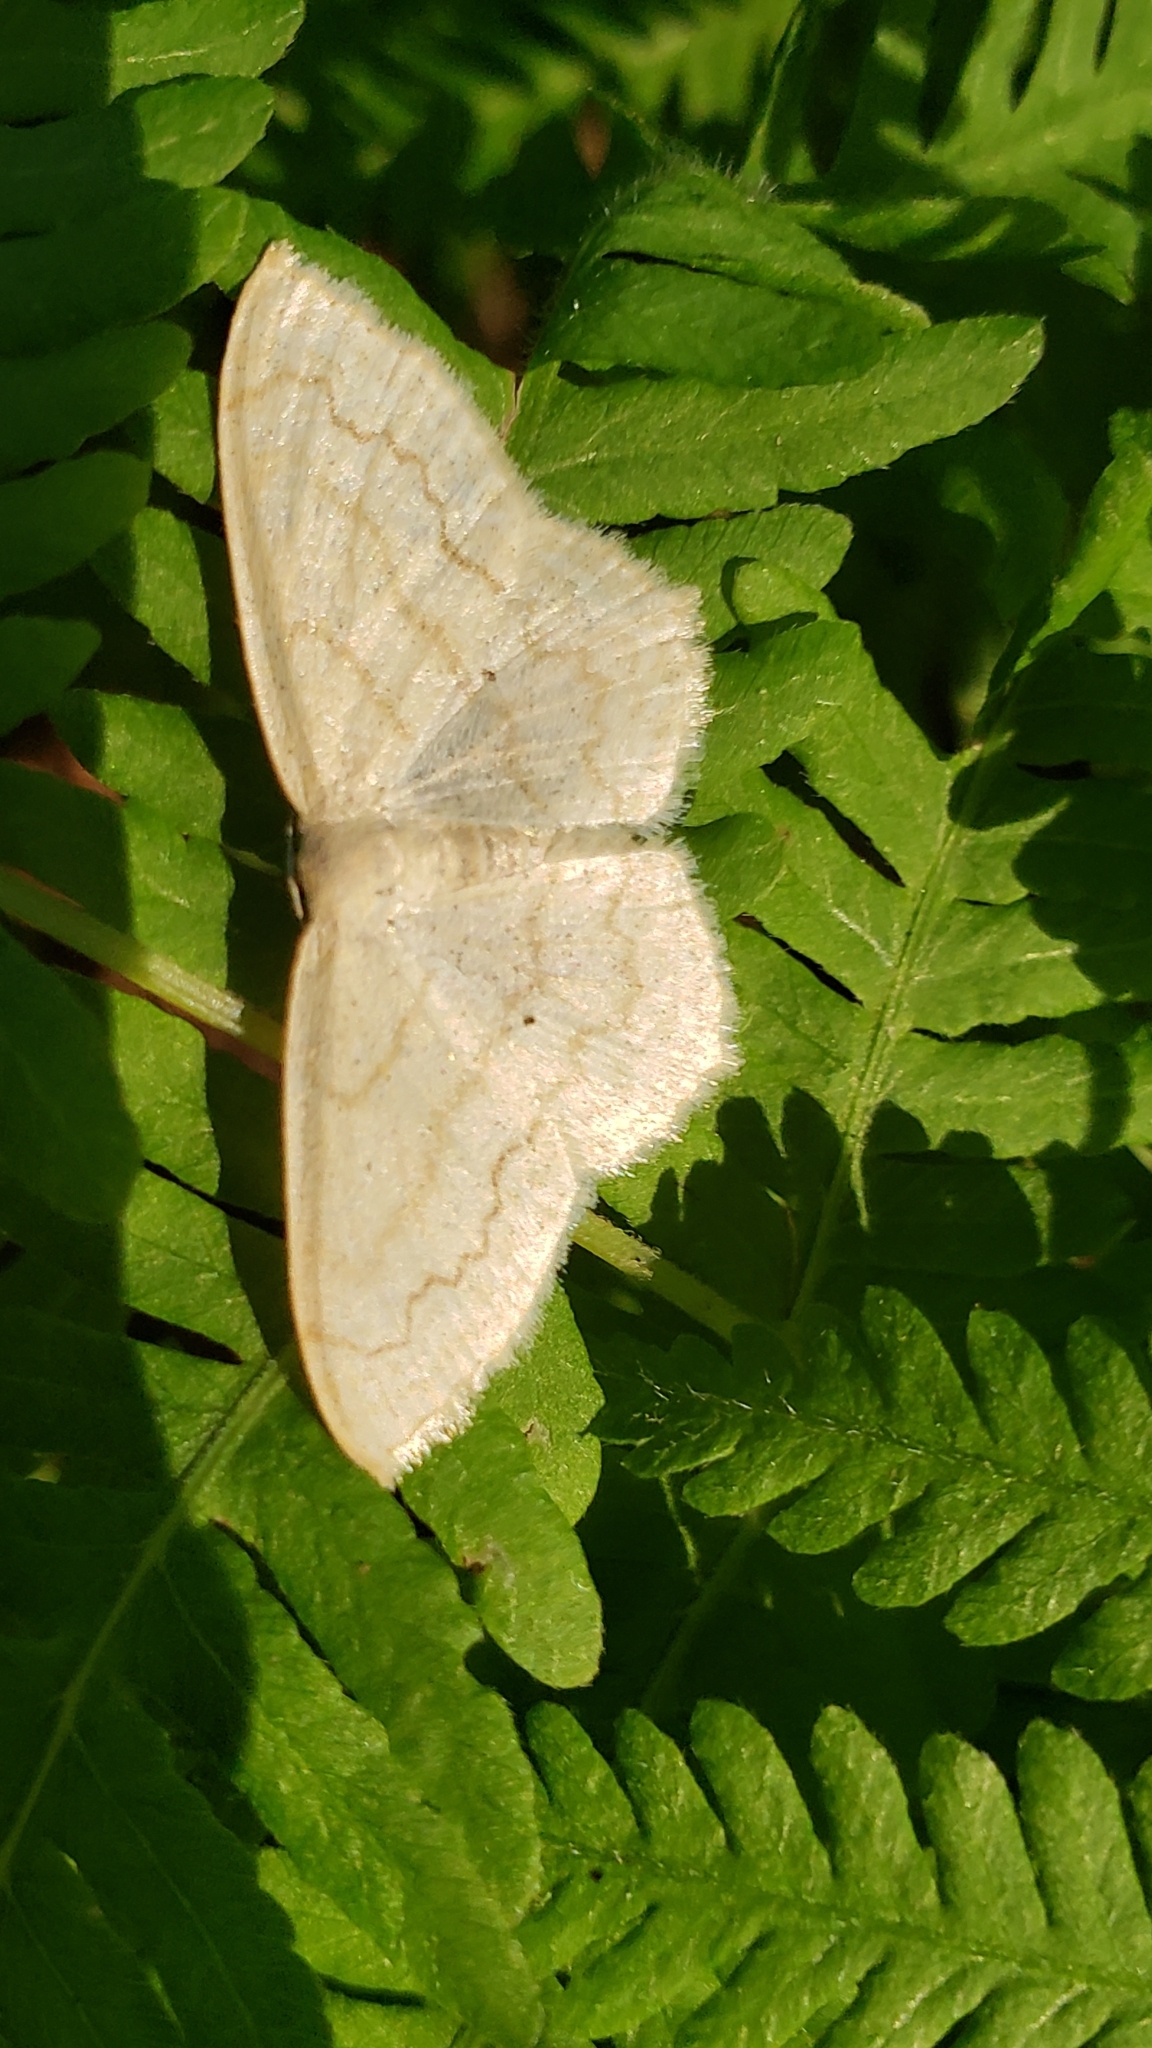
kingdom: Animalia
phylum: Arthropoda
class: Insecta
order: Lepidoptera
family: Geometridae
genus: Scopula
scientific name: Scopula limboundata
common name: Large lace border
